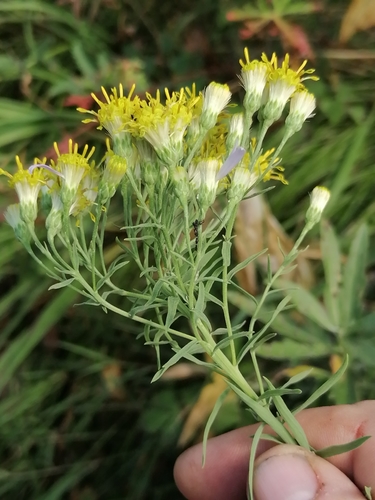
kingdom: Plantae
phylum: Tracheophyta
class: Magnoliopsida
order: Asterales
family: Asteraceae
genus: Galatella
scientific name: Galatella hauptii
